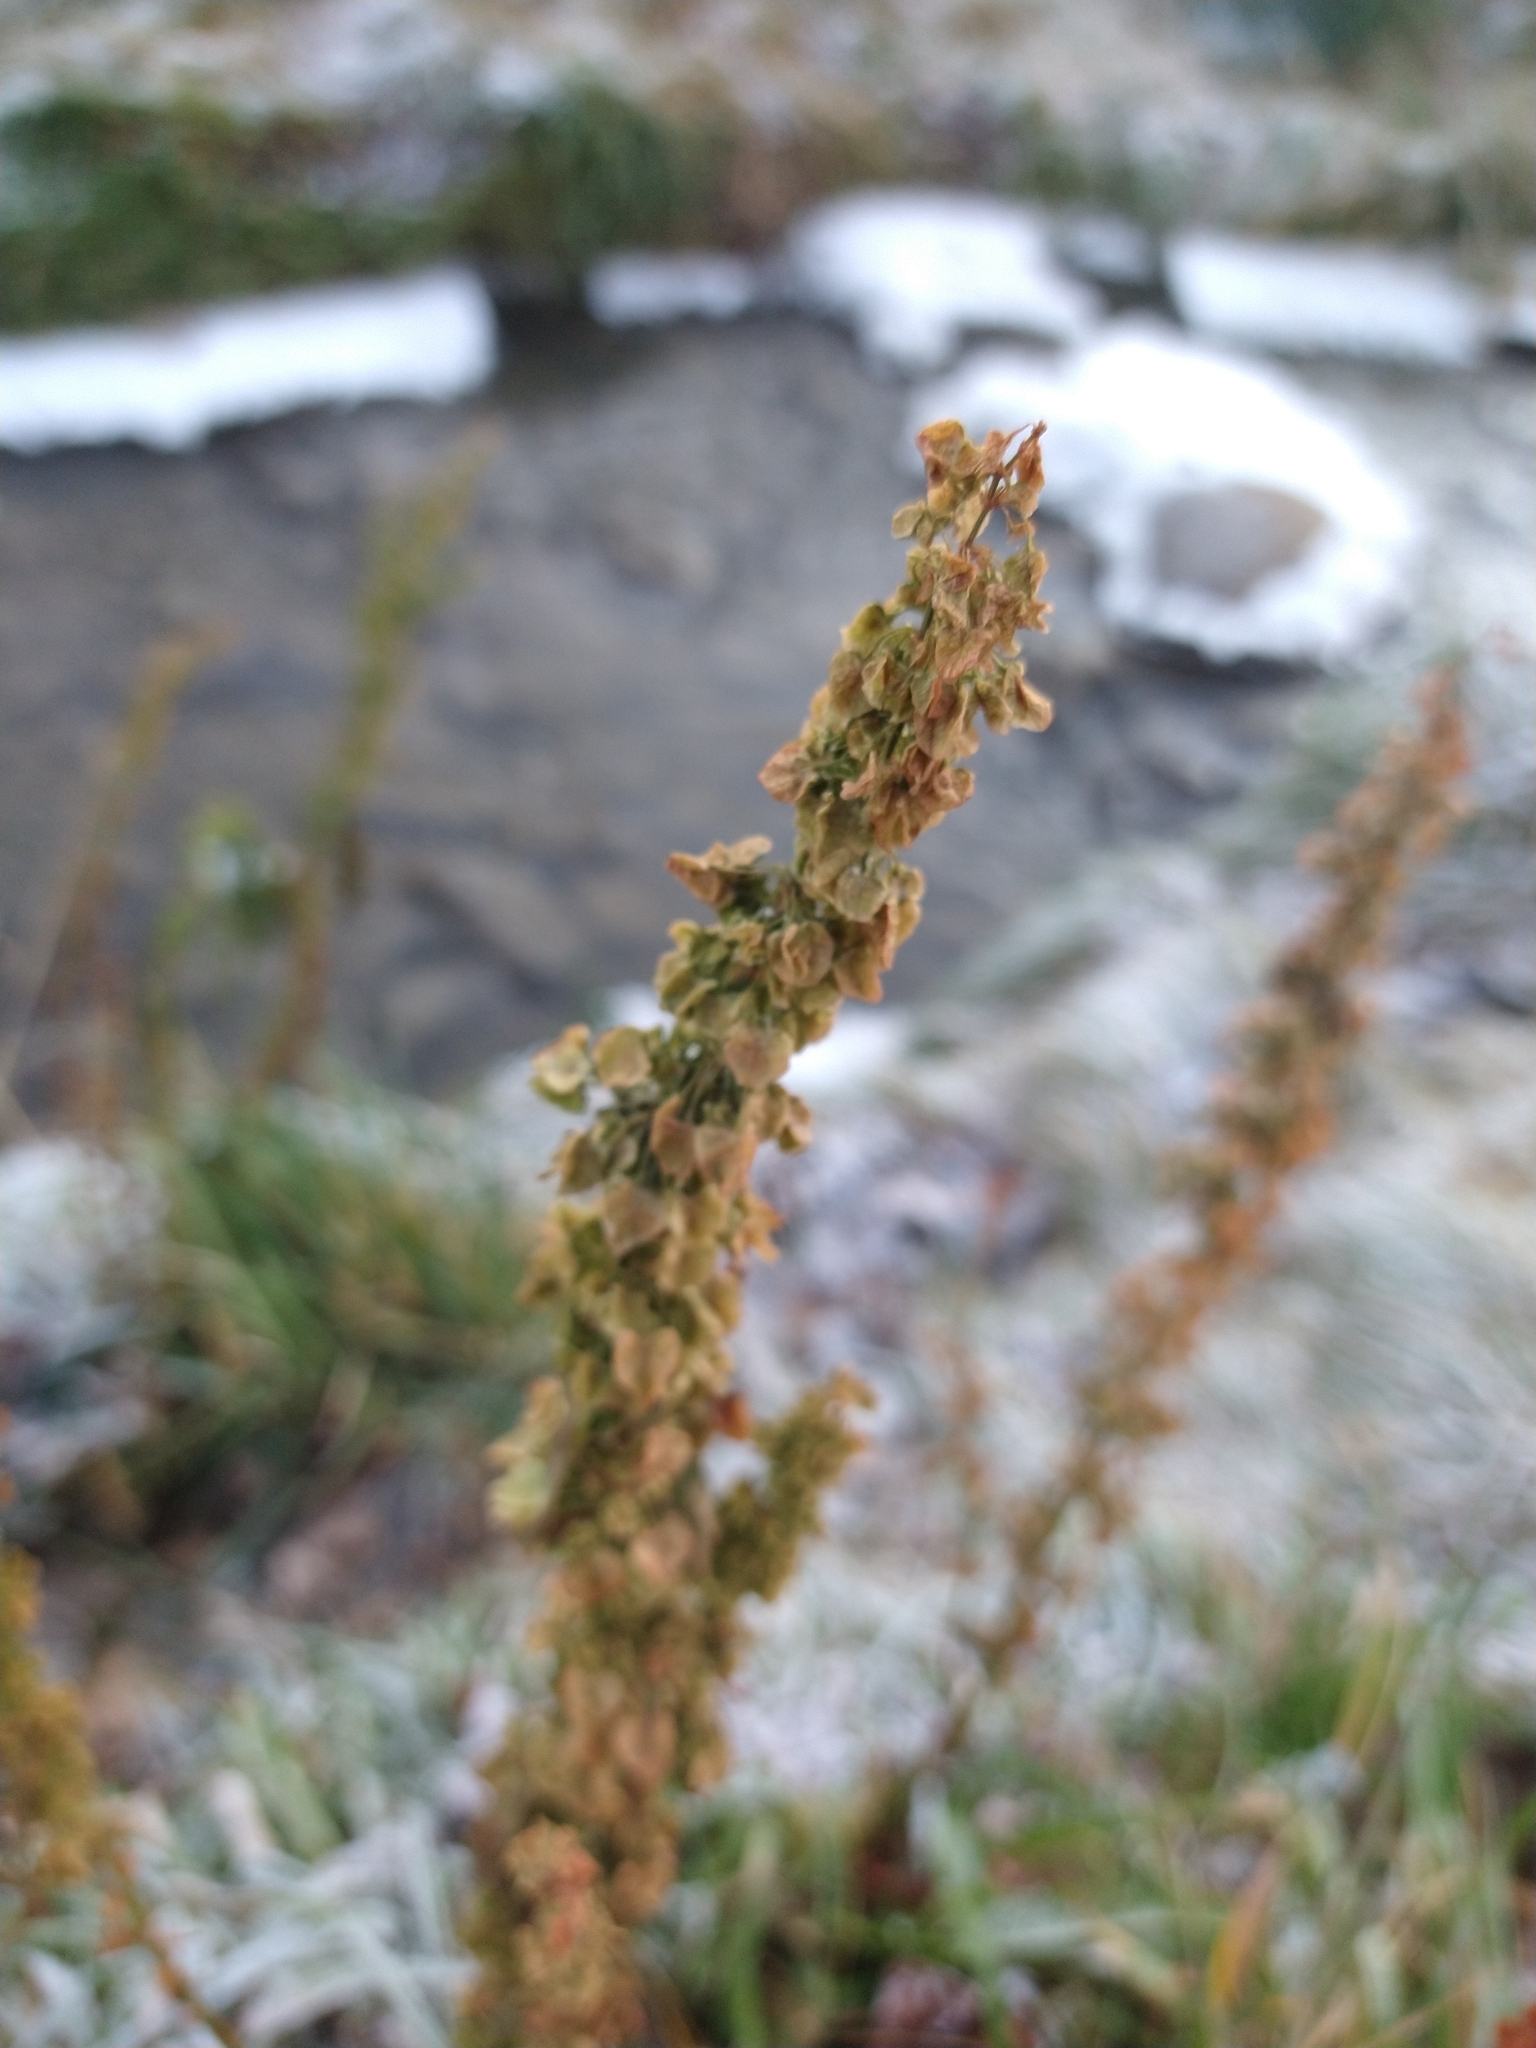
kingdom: Plantae
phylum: Tracheophyta
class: Magnoliopsida
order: Caryophyllales
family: Polygonaceae
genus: Rumex
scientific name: Rumex crispus
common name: Curled dock
